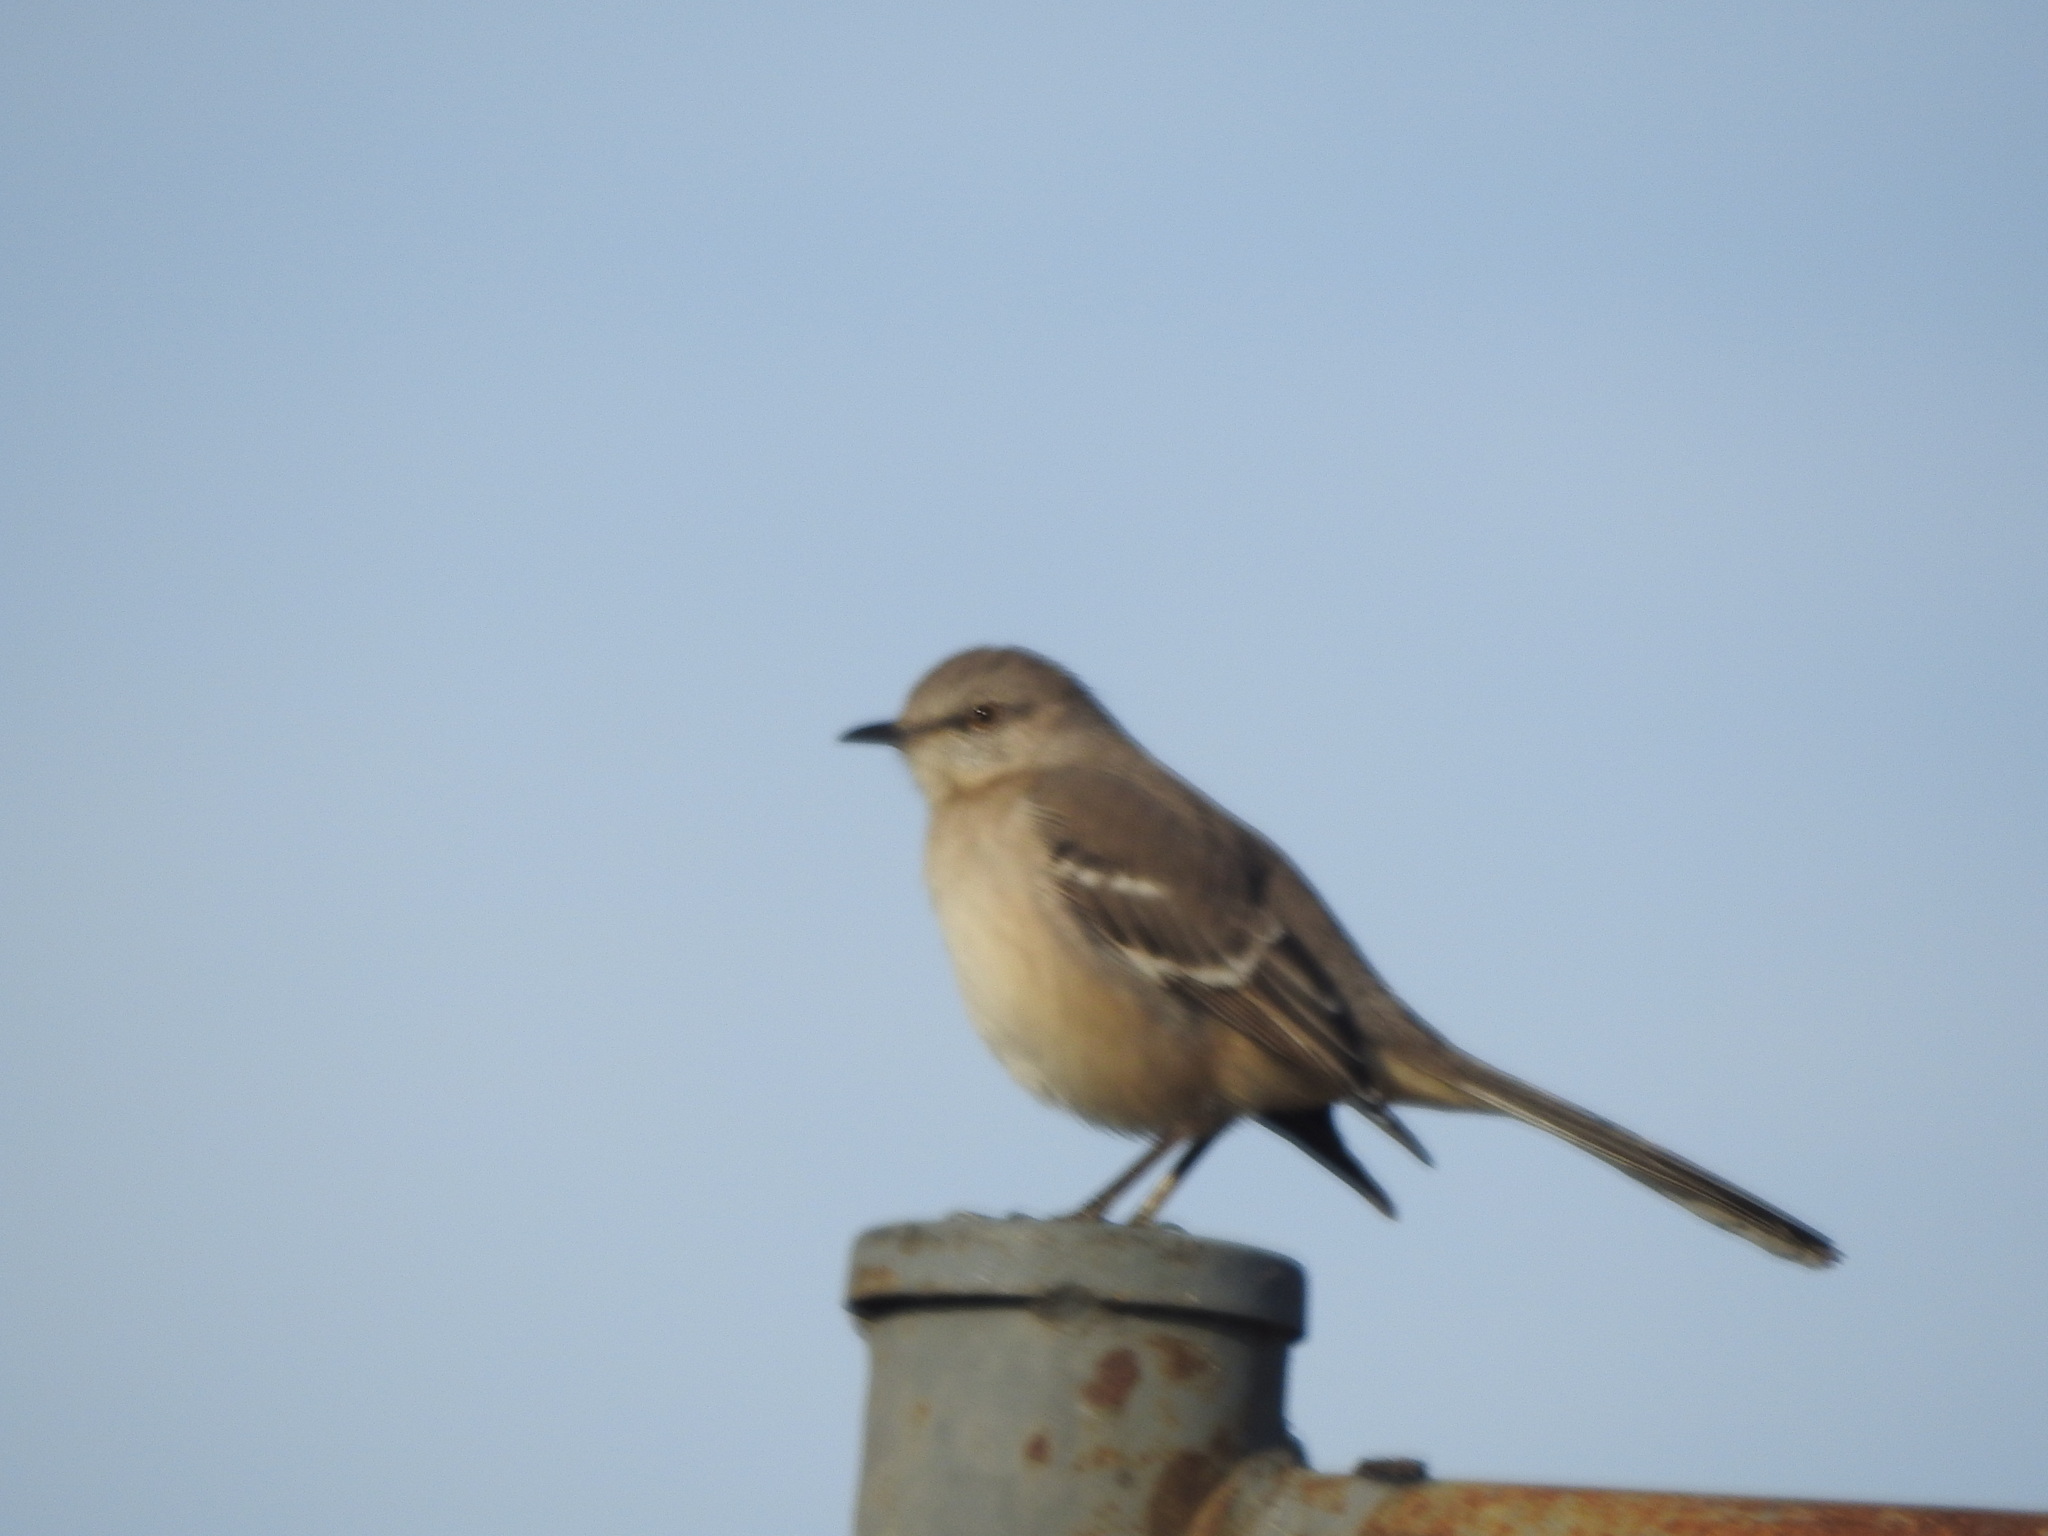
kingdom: Animalia
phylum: Chordata
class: Aves
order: Passeriformes
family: Mimidae
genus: Mimus
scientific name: Mimus polyglottos
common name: Northern mockingbird
